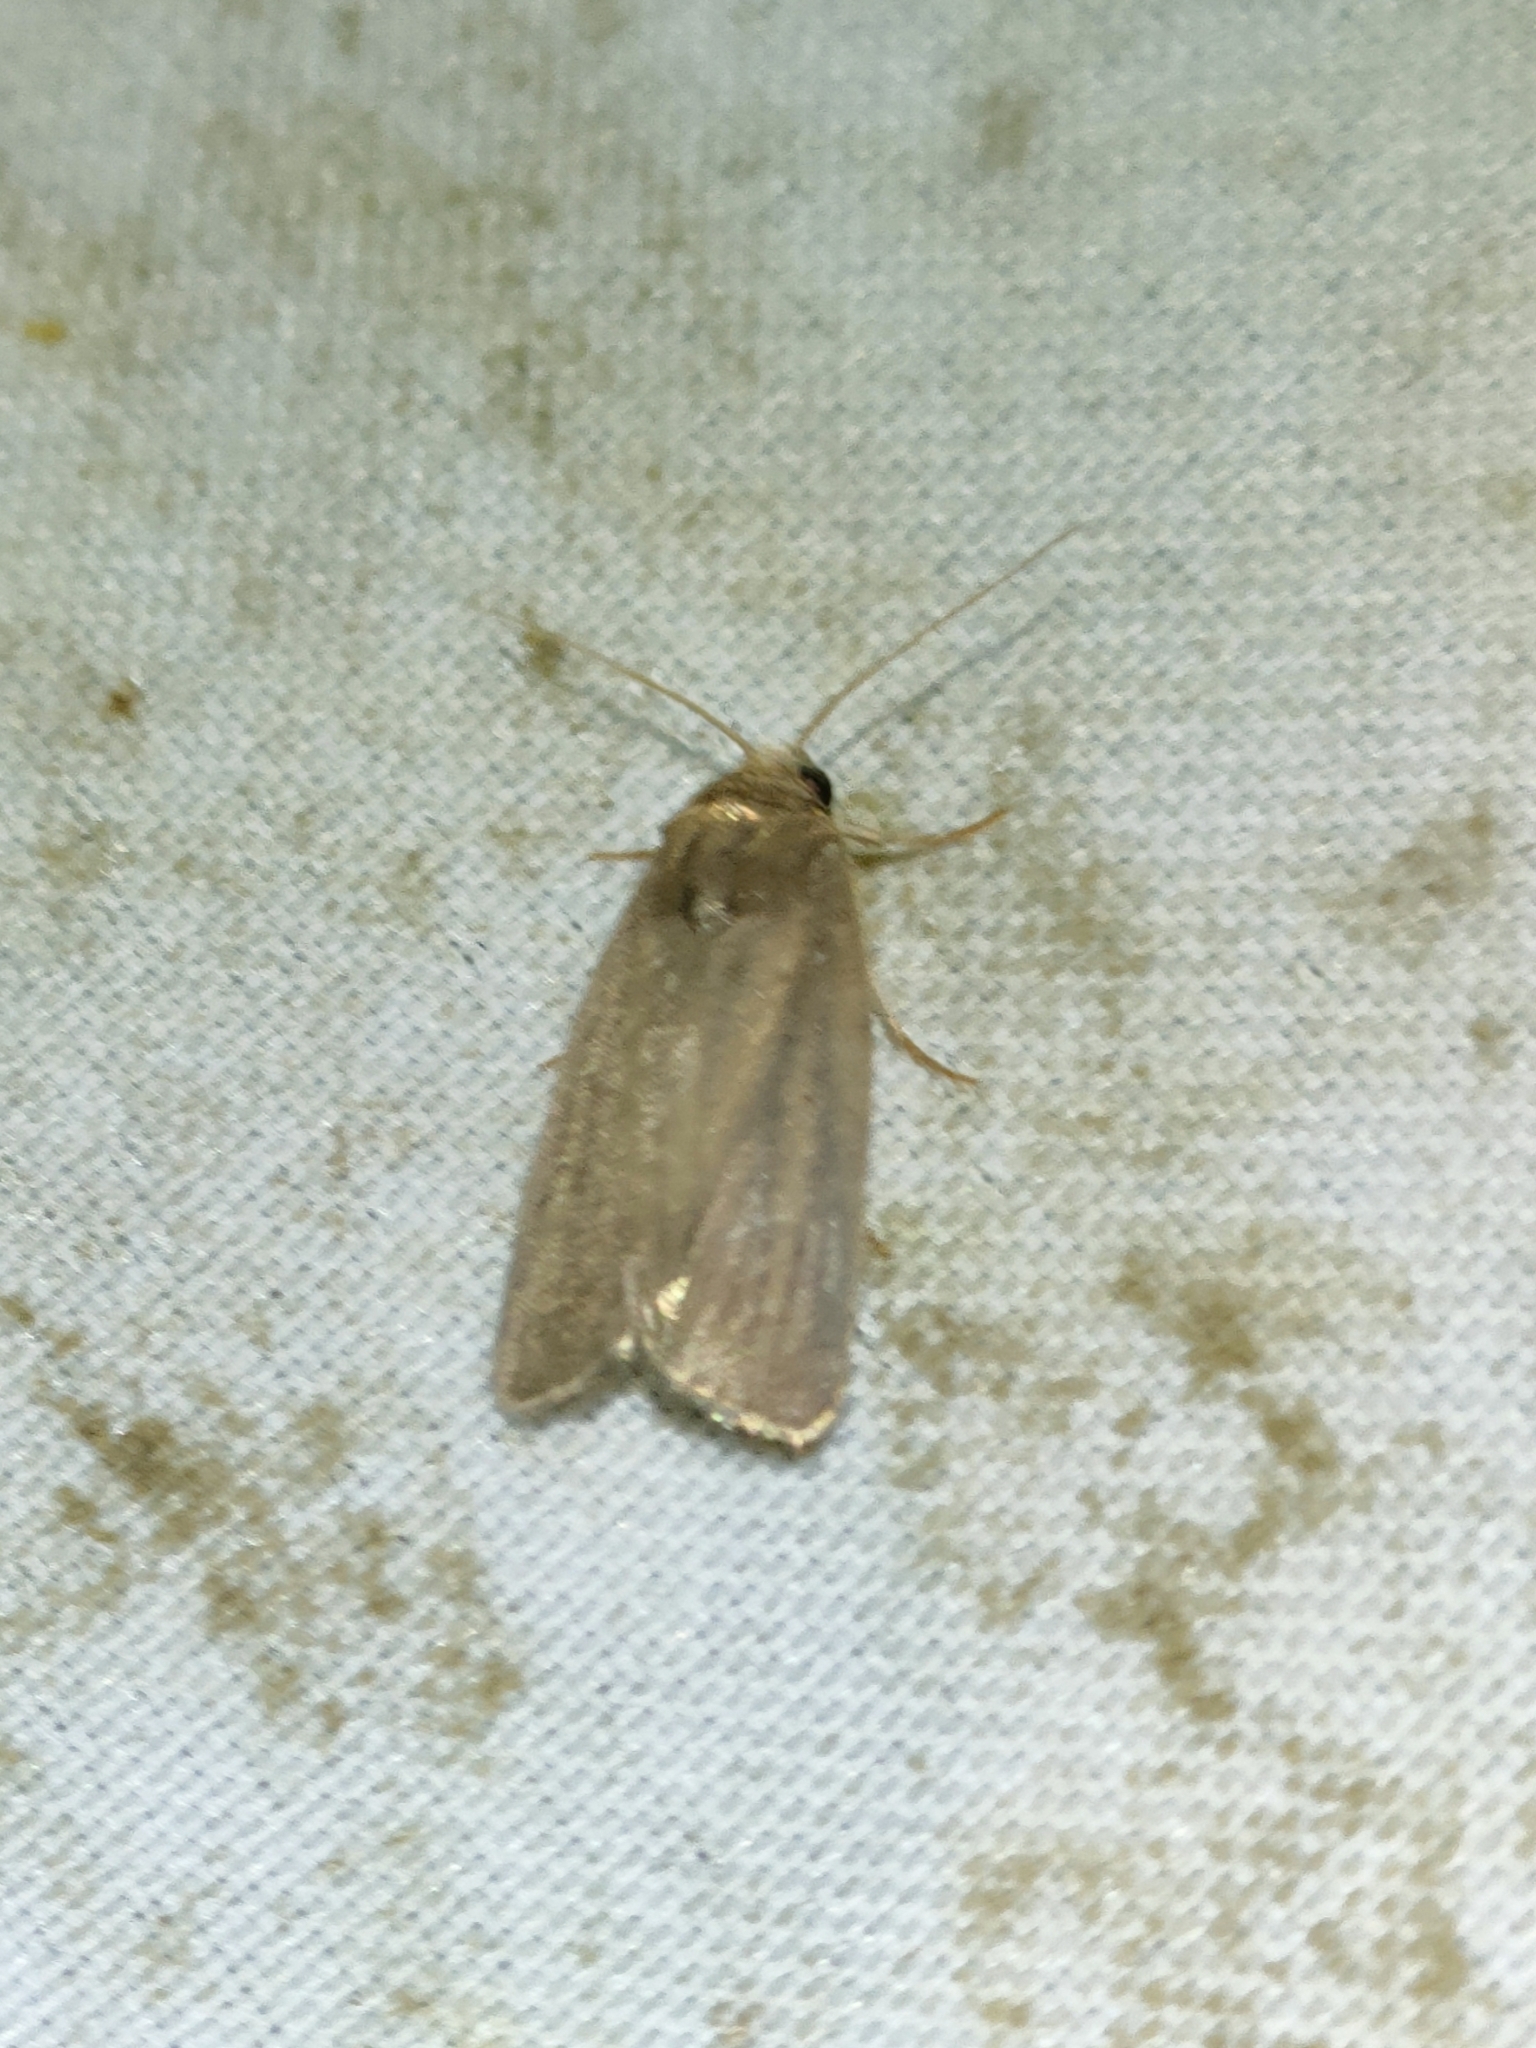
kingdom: Animalia
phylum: Arthropoda
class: Insecta
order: Lepidoptera
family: Noctuidae
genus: Athetis
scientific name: Athetis hospes
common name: Porter's rustic
